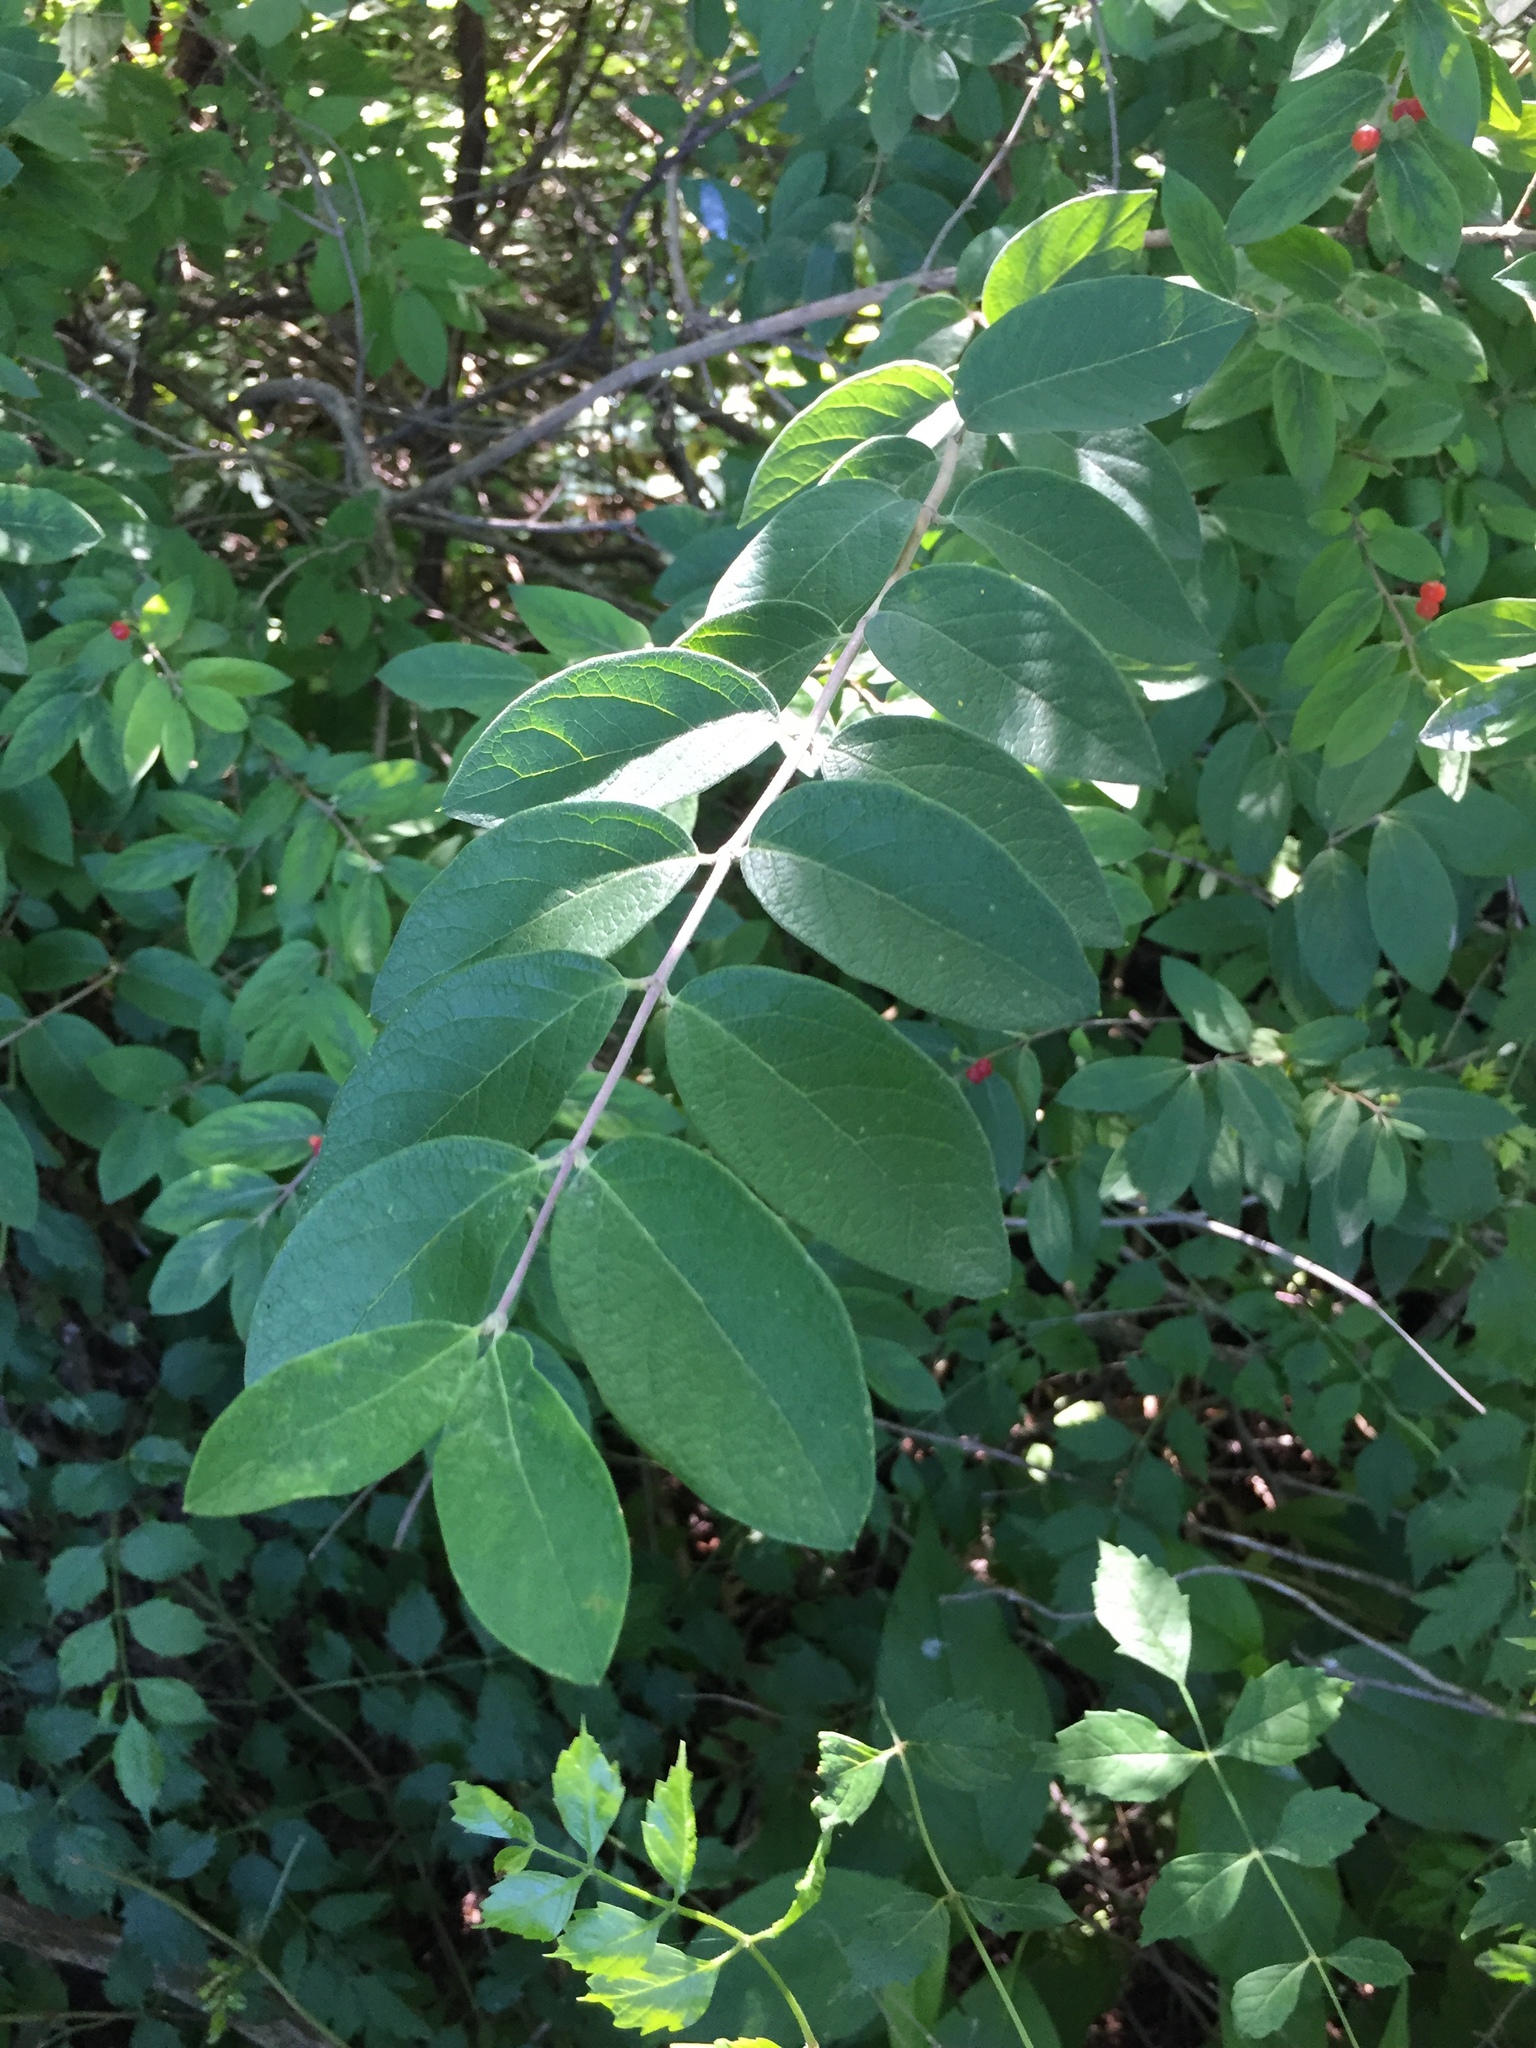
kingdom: Plantae
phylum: Tracheophyta
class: Magnoliopsida
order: Dipsacales
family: Caprifoliaceae
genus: Lonicera
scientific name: Lonicera morrowii
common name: Morrow's honeysuckle
